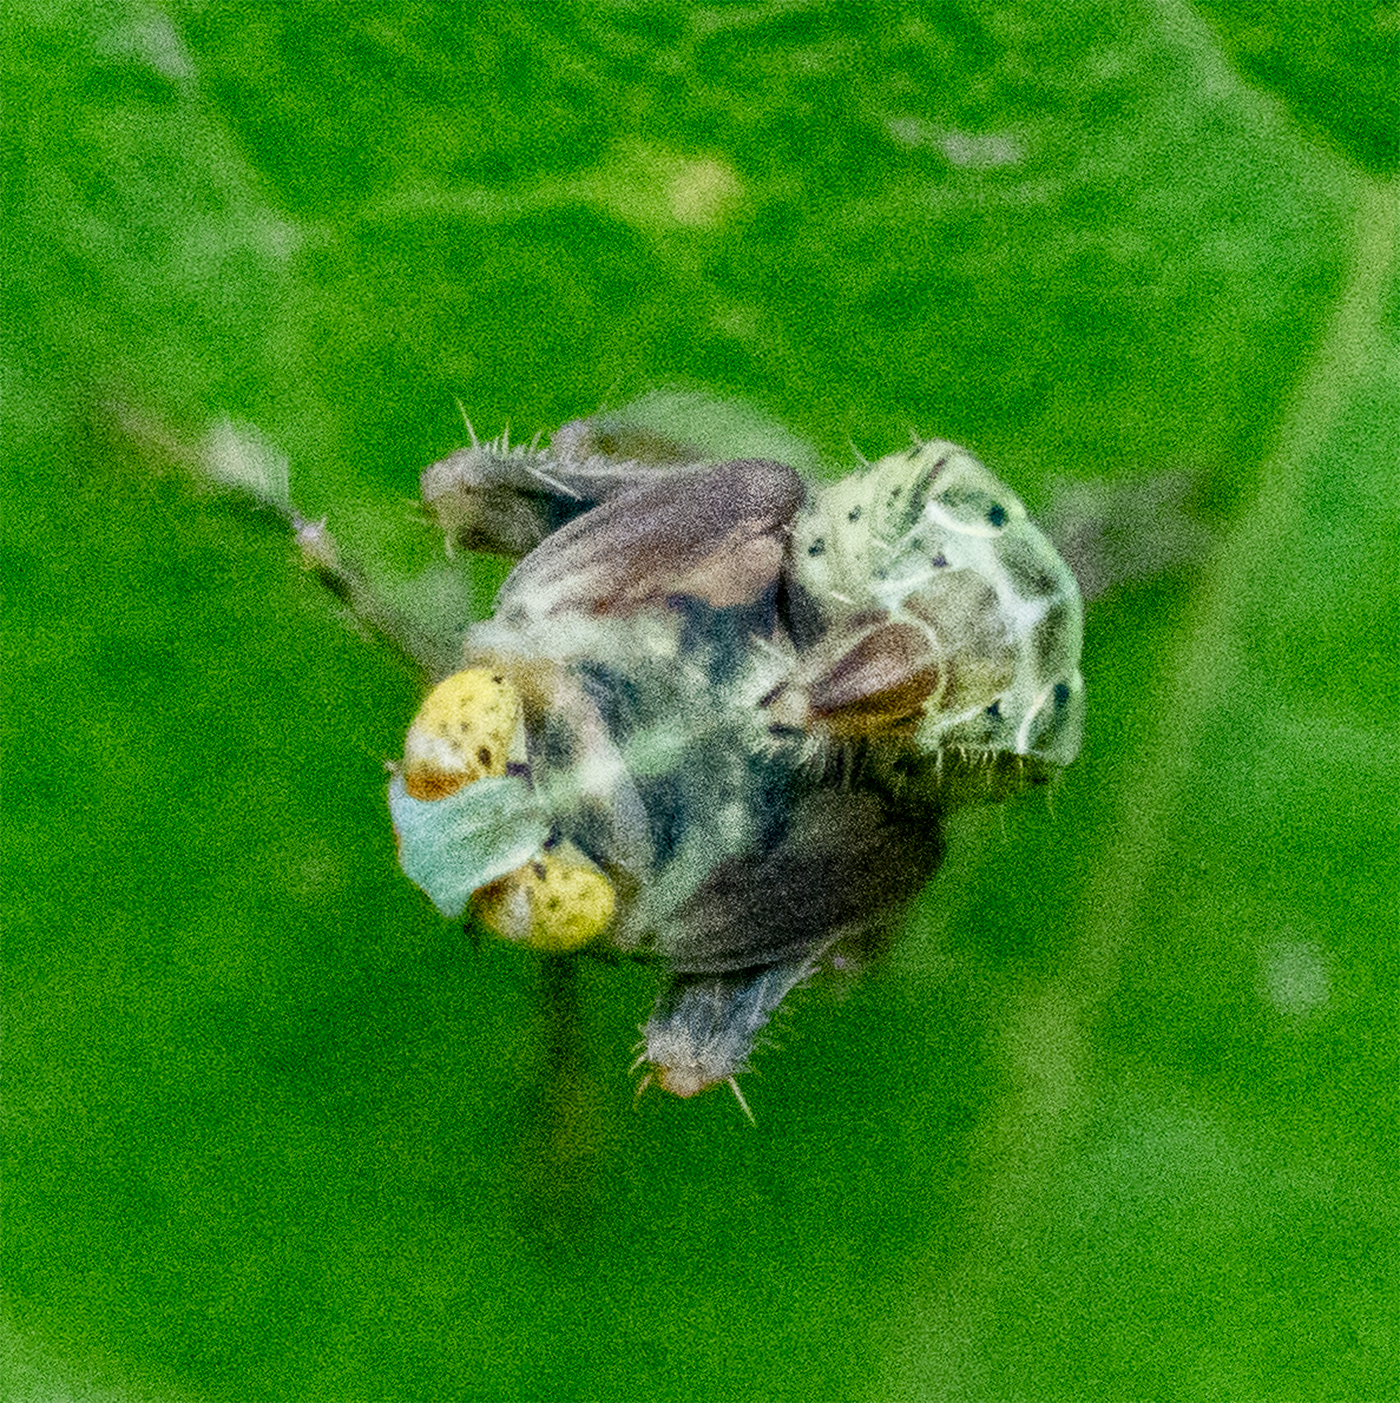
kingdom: Animalia
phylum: Arthropoda
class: Insecta
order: Hemiptera
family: Cicadellidae
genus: Jikradia
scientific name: Jikradia olitoria
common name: Coppery leafhopper
